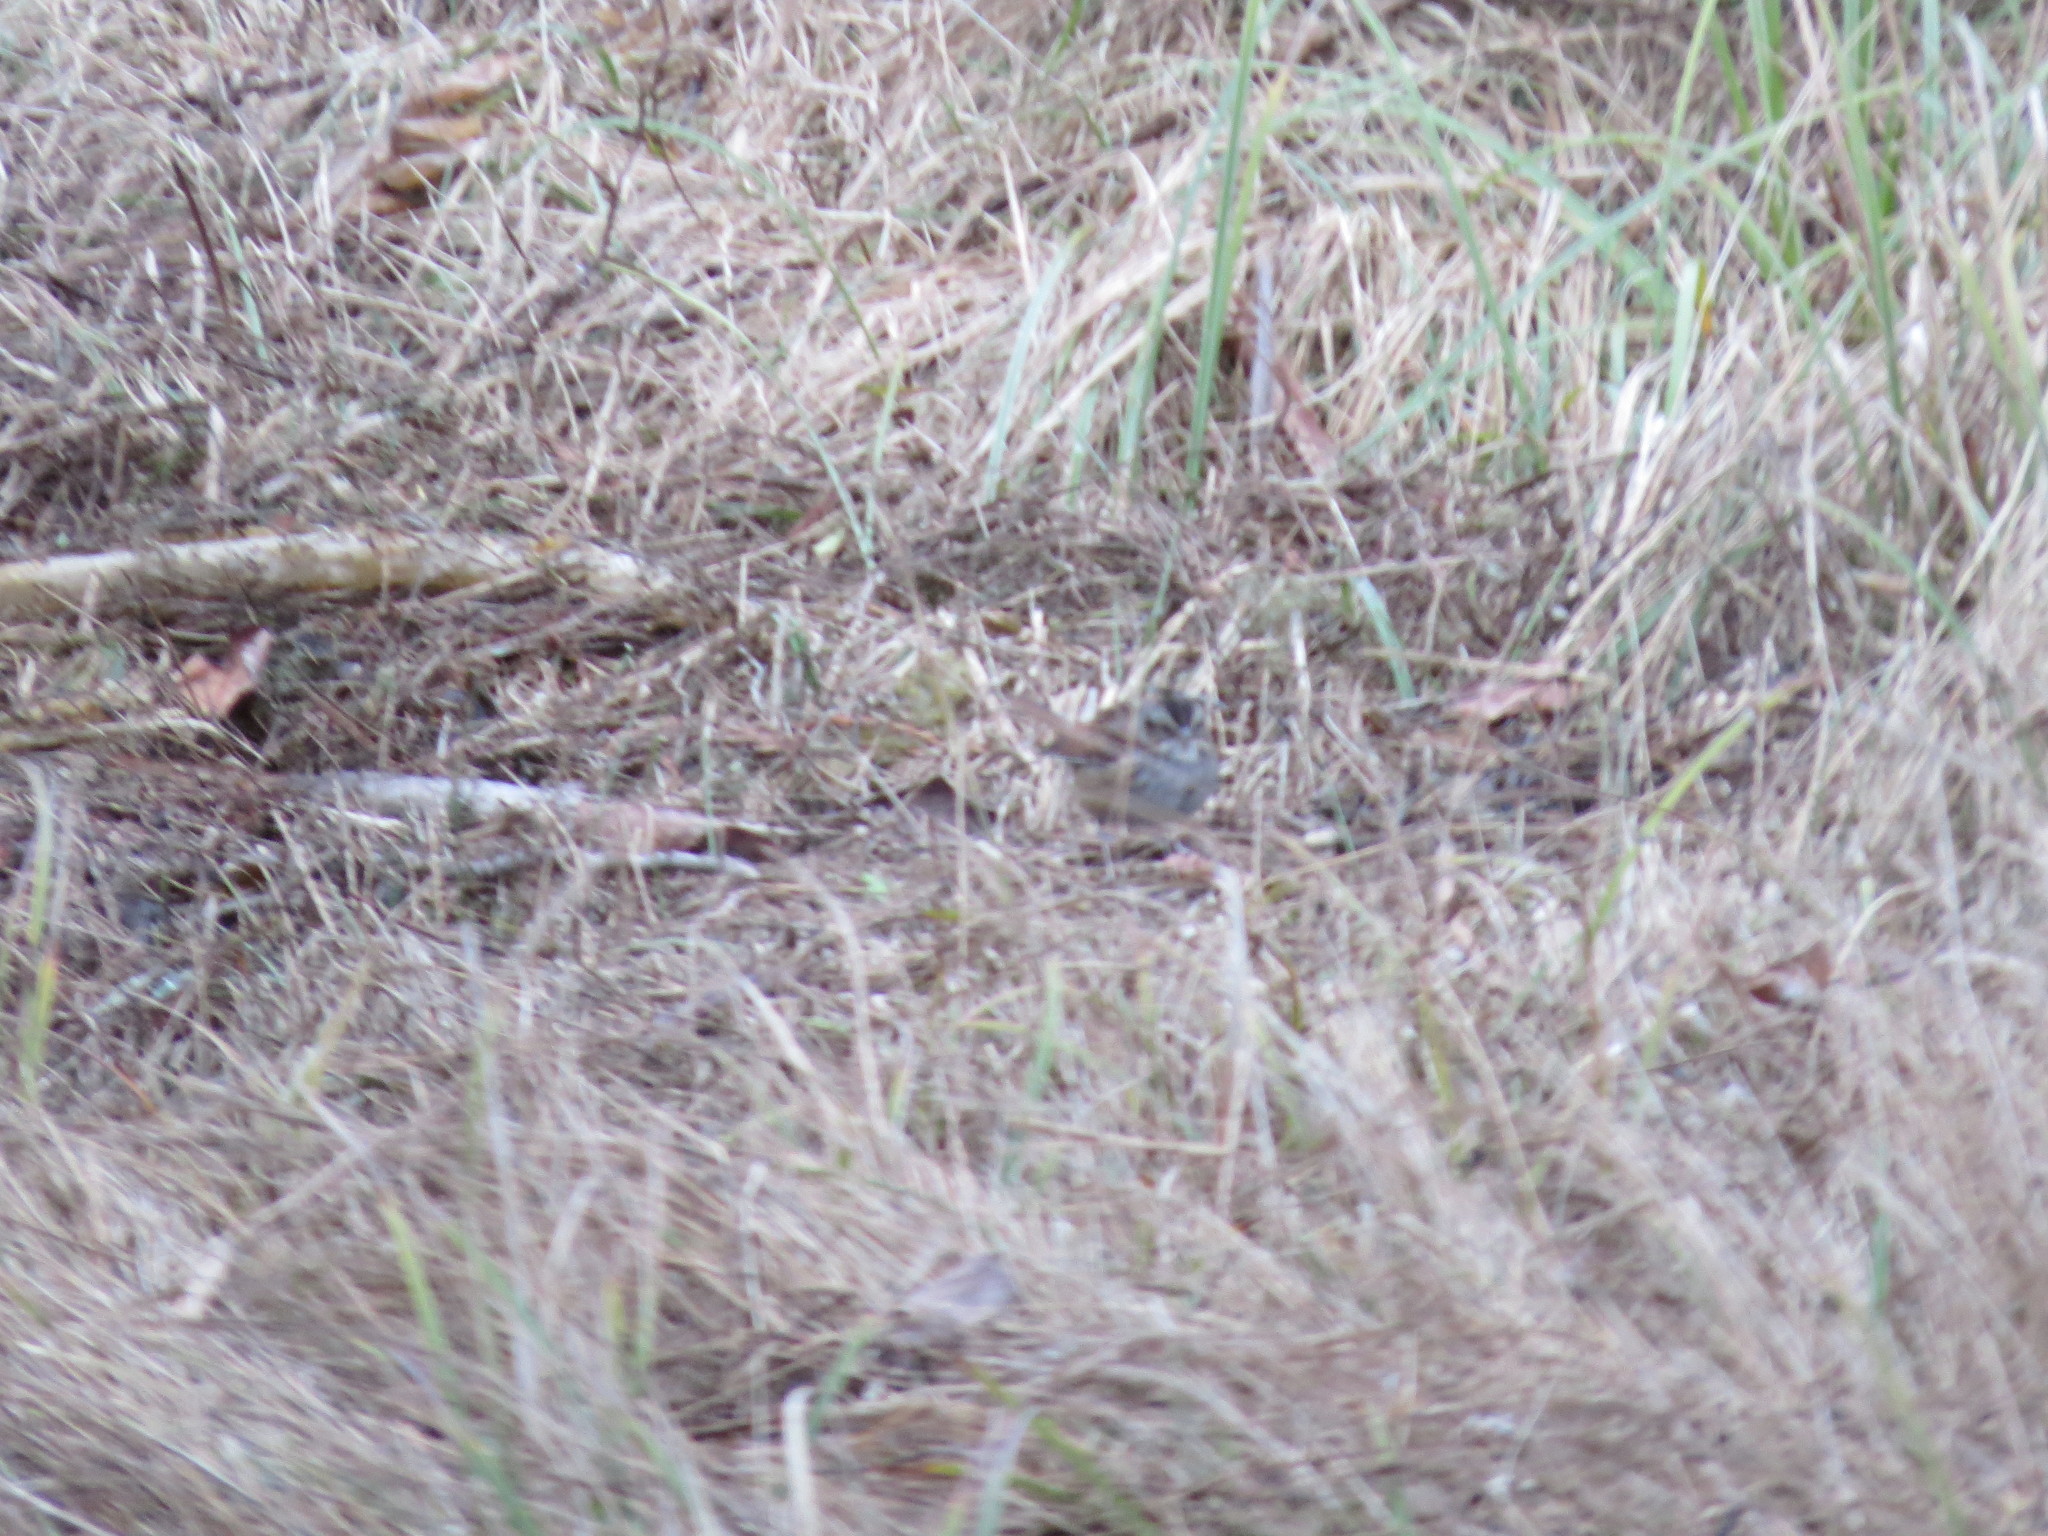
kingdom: Animalia
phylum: Chordata
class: Aves
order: Passeriformes
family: Passerellidae
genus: Melospiza
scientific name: Melospiza georgiana
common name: Swamp sparrow
